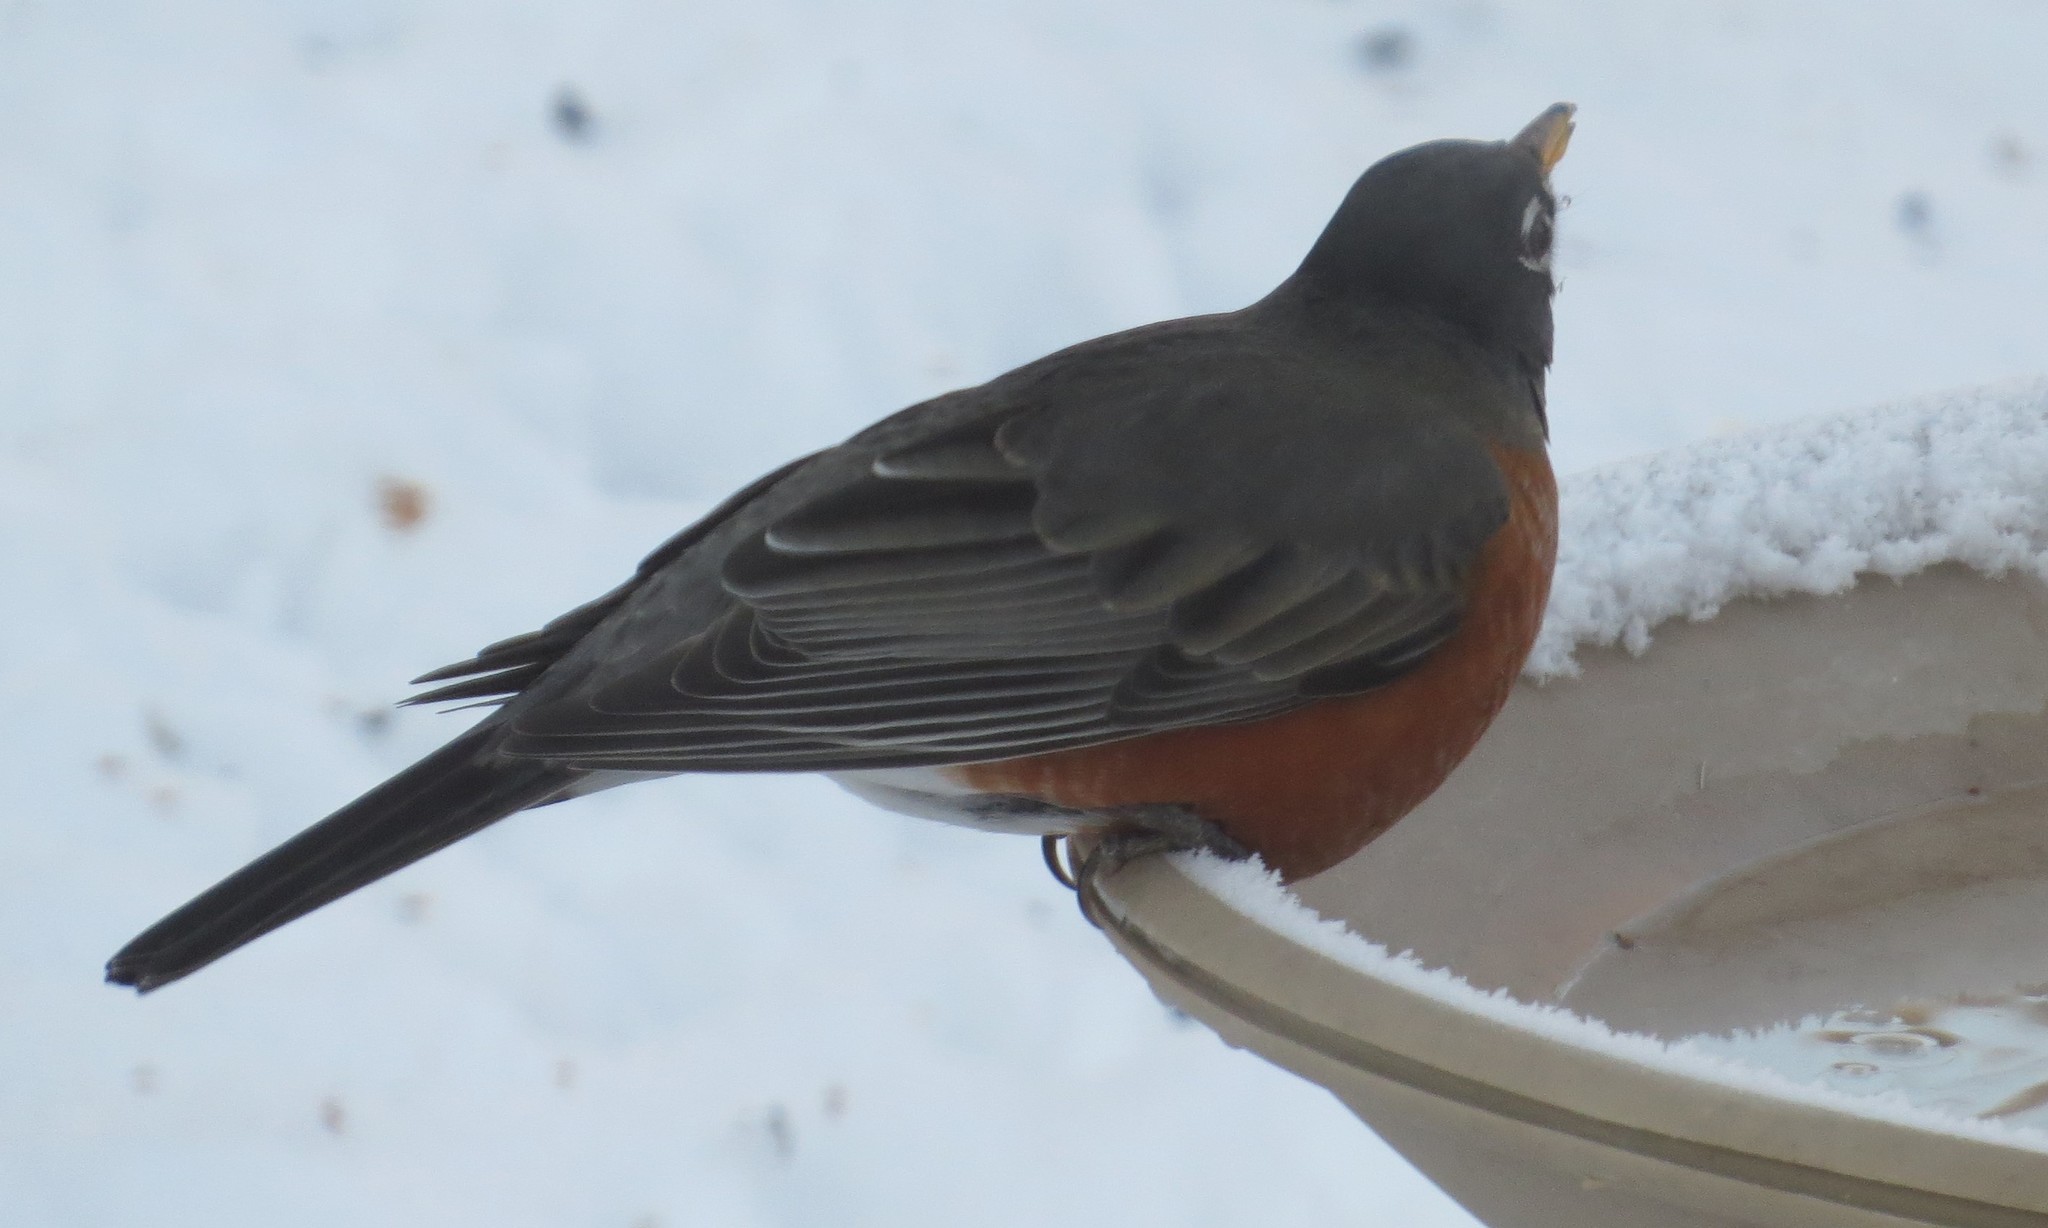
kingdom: Animalia
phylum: Chordata
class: Aves
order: Passeriformes
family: Turdidae
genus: Turdus
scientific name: Turdus migratorius
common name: American robin
